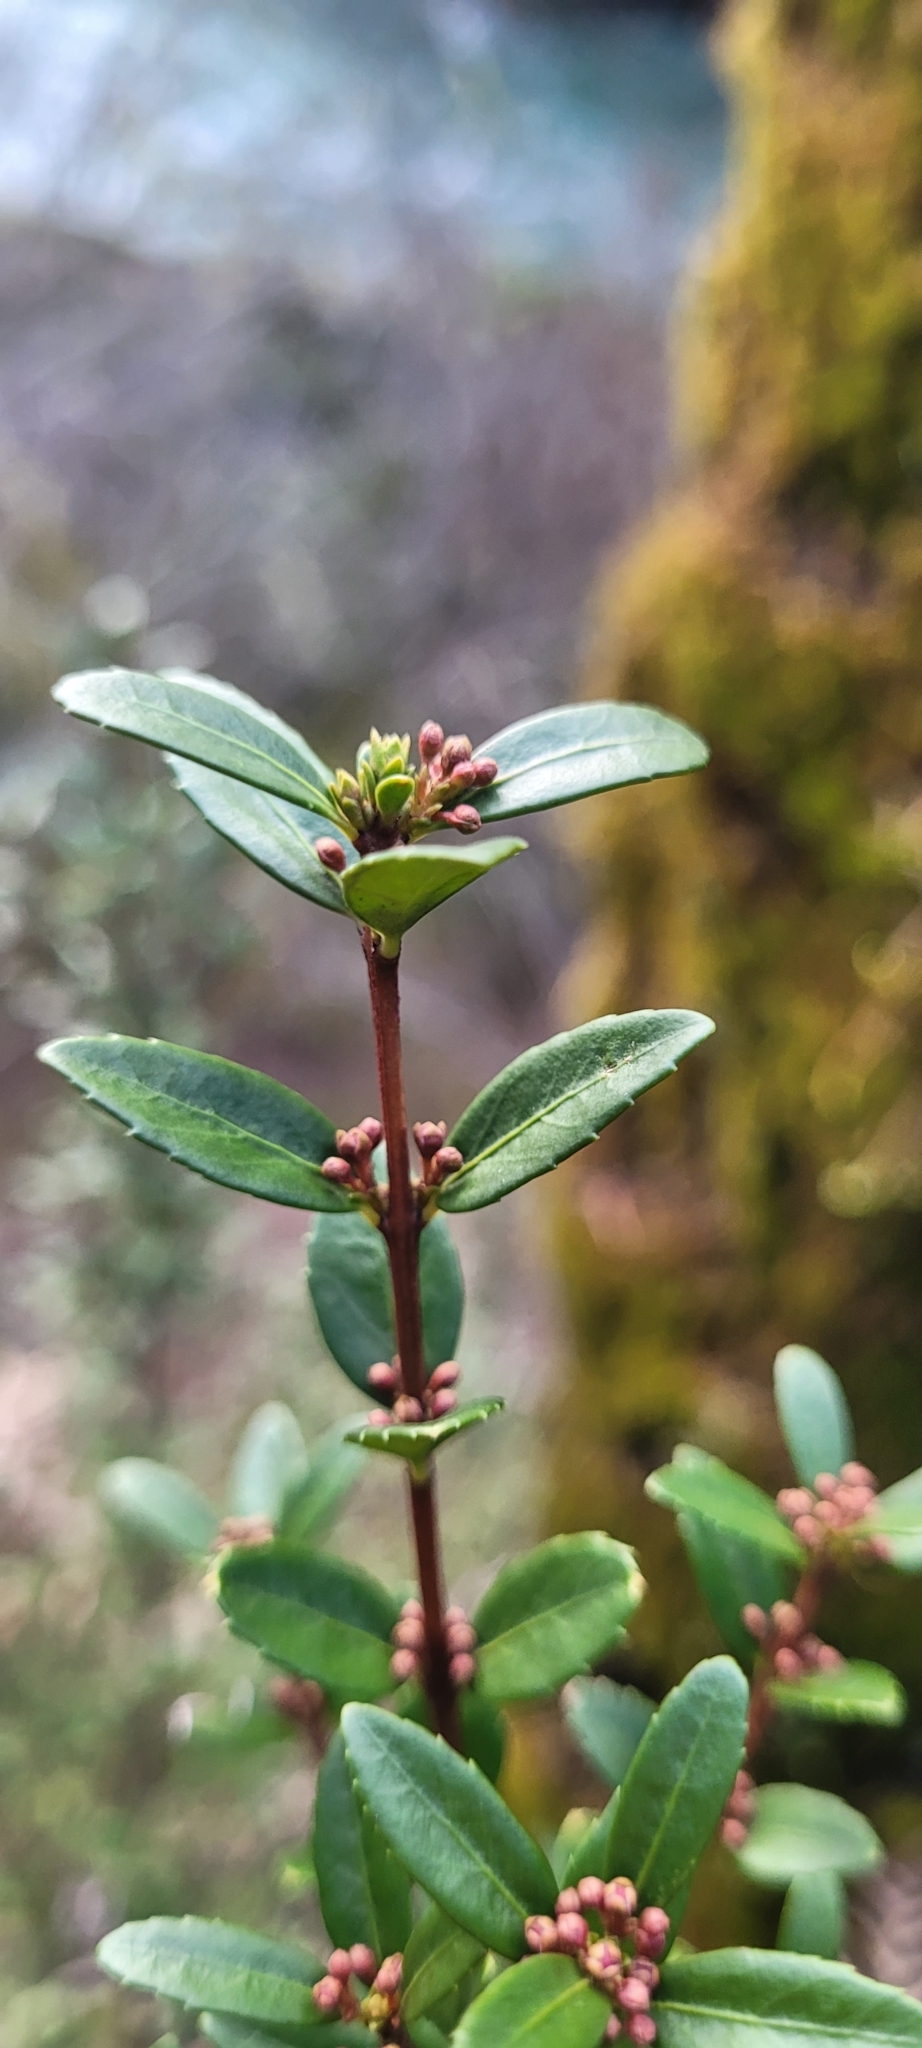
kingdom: Plantae
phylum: Tracheophyta
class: Magnoliopsida
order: Celastrales
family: Celastraceae
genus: Paxistima
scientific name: Paxistima myrsinites
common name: Mountain-lover
